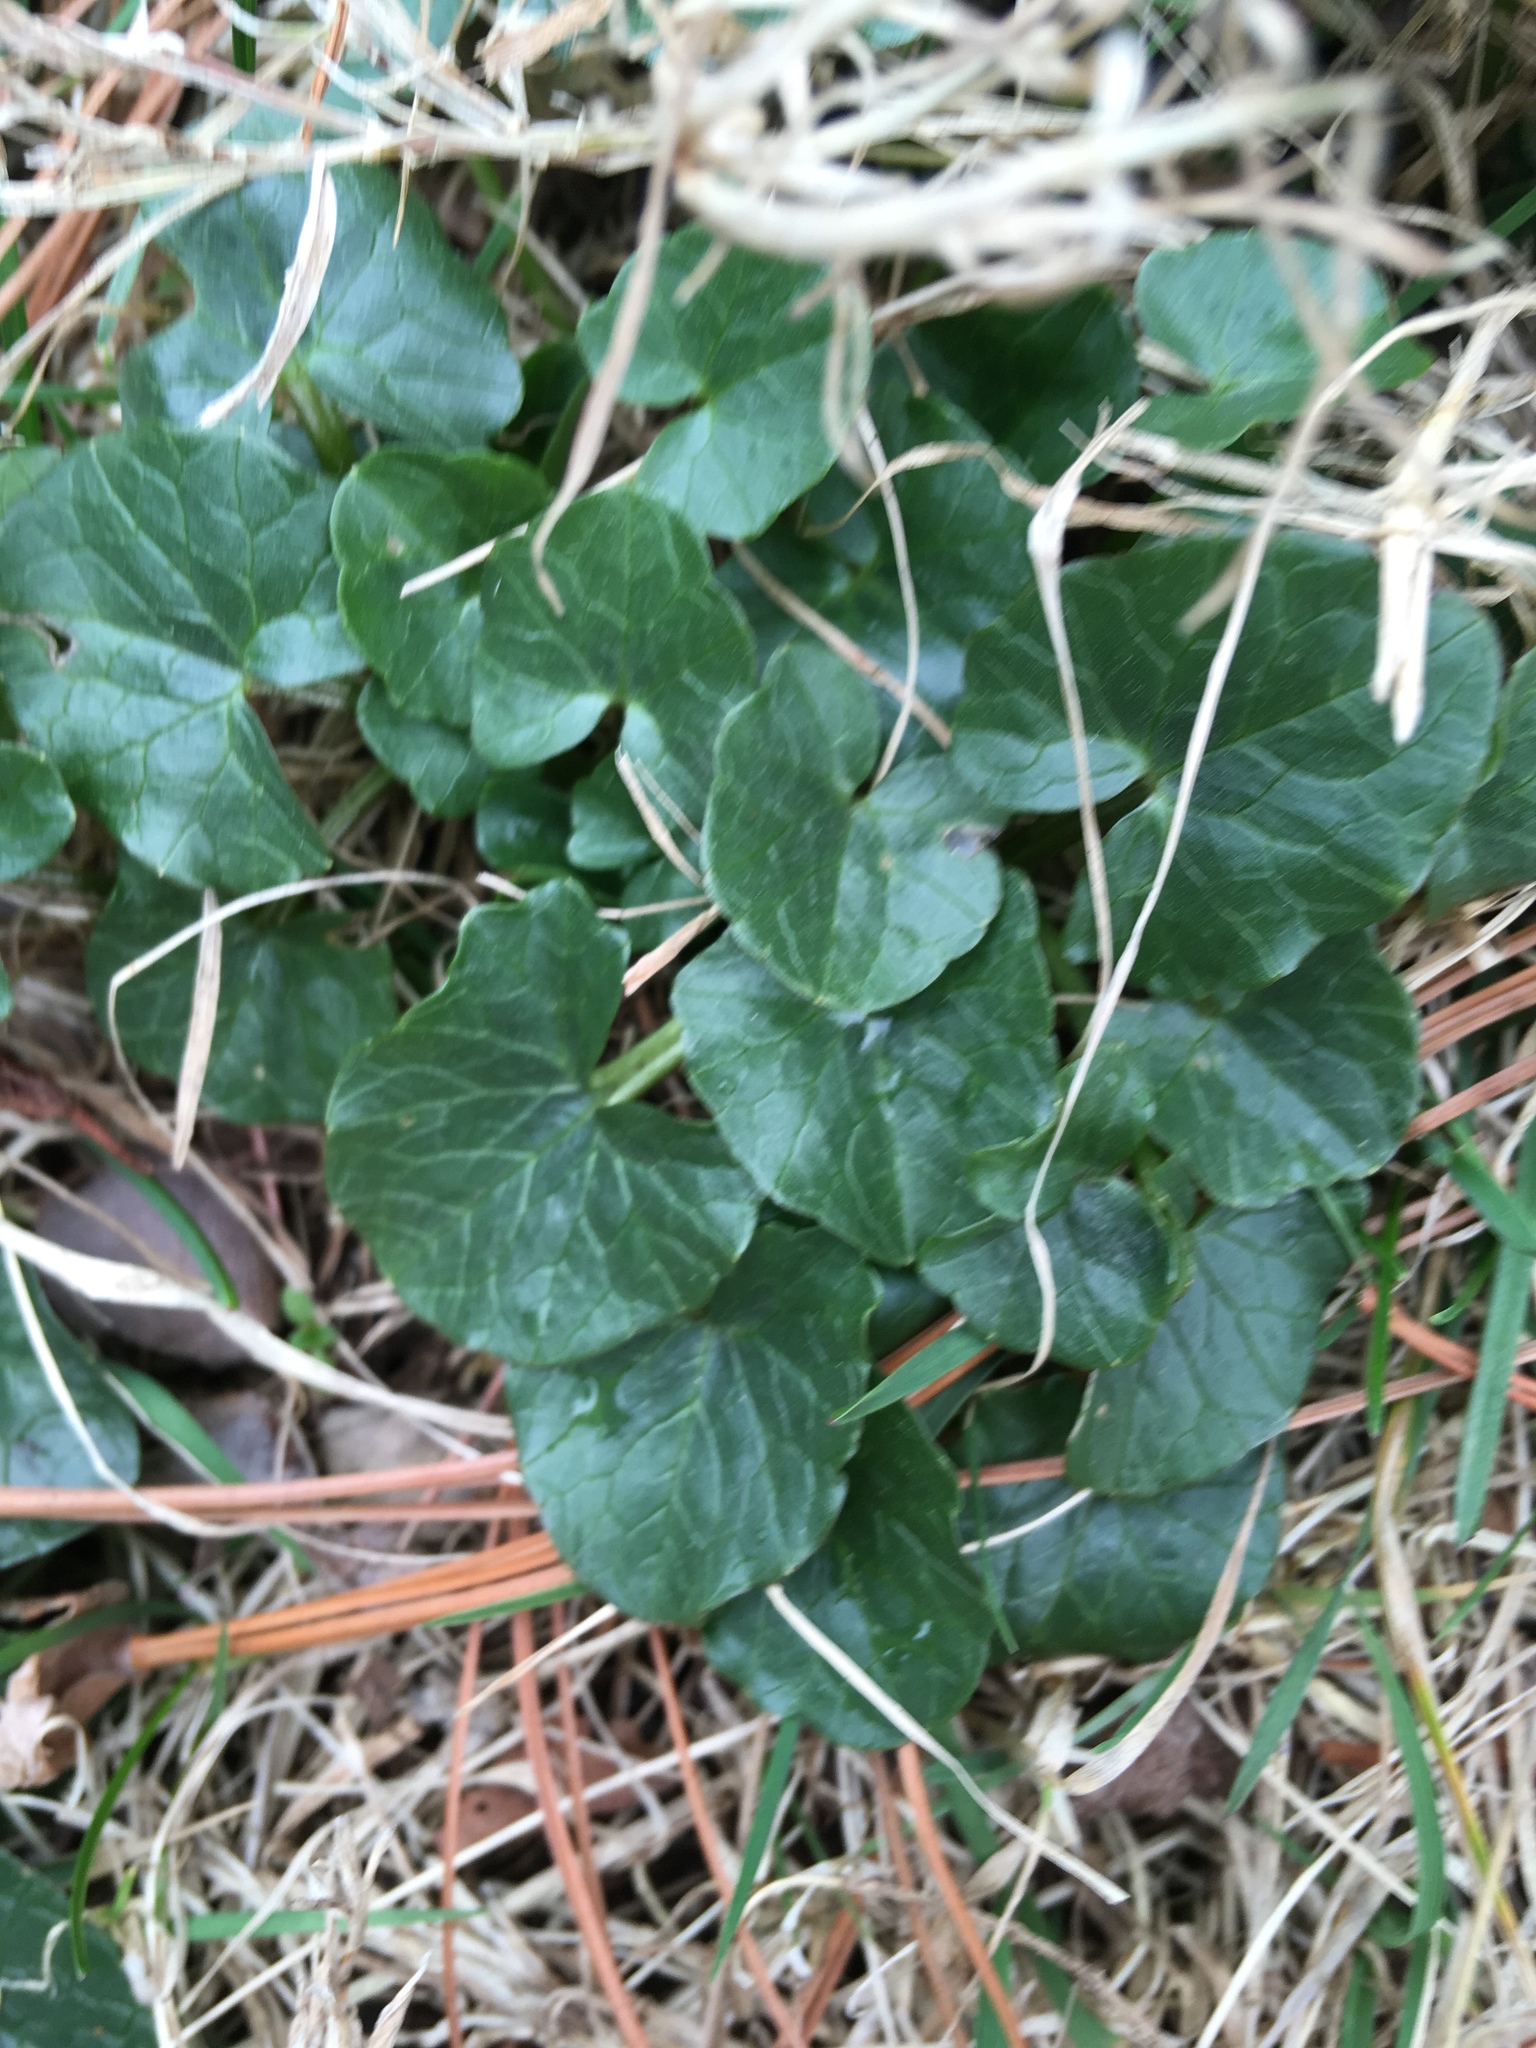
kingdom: Plantae
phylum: Tracheophyta
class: Magnoliopsida
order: Ranunculales
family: Ranunculaceae
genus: Ficaria
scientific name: Ficaria verna
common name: Lesser celandine
